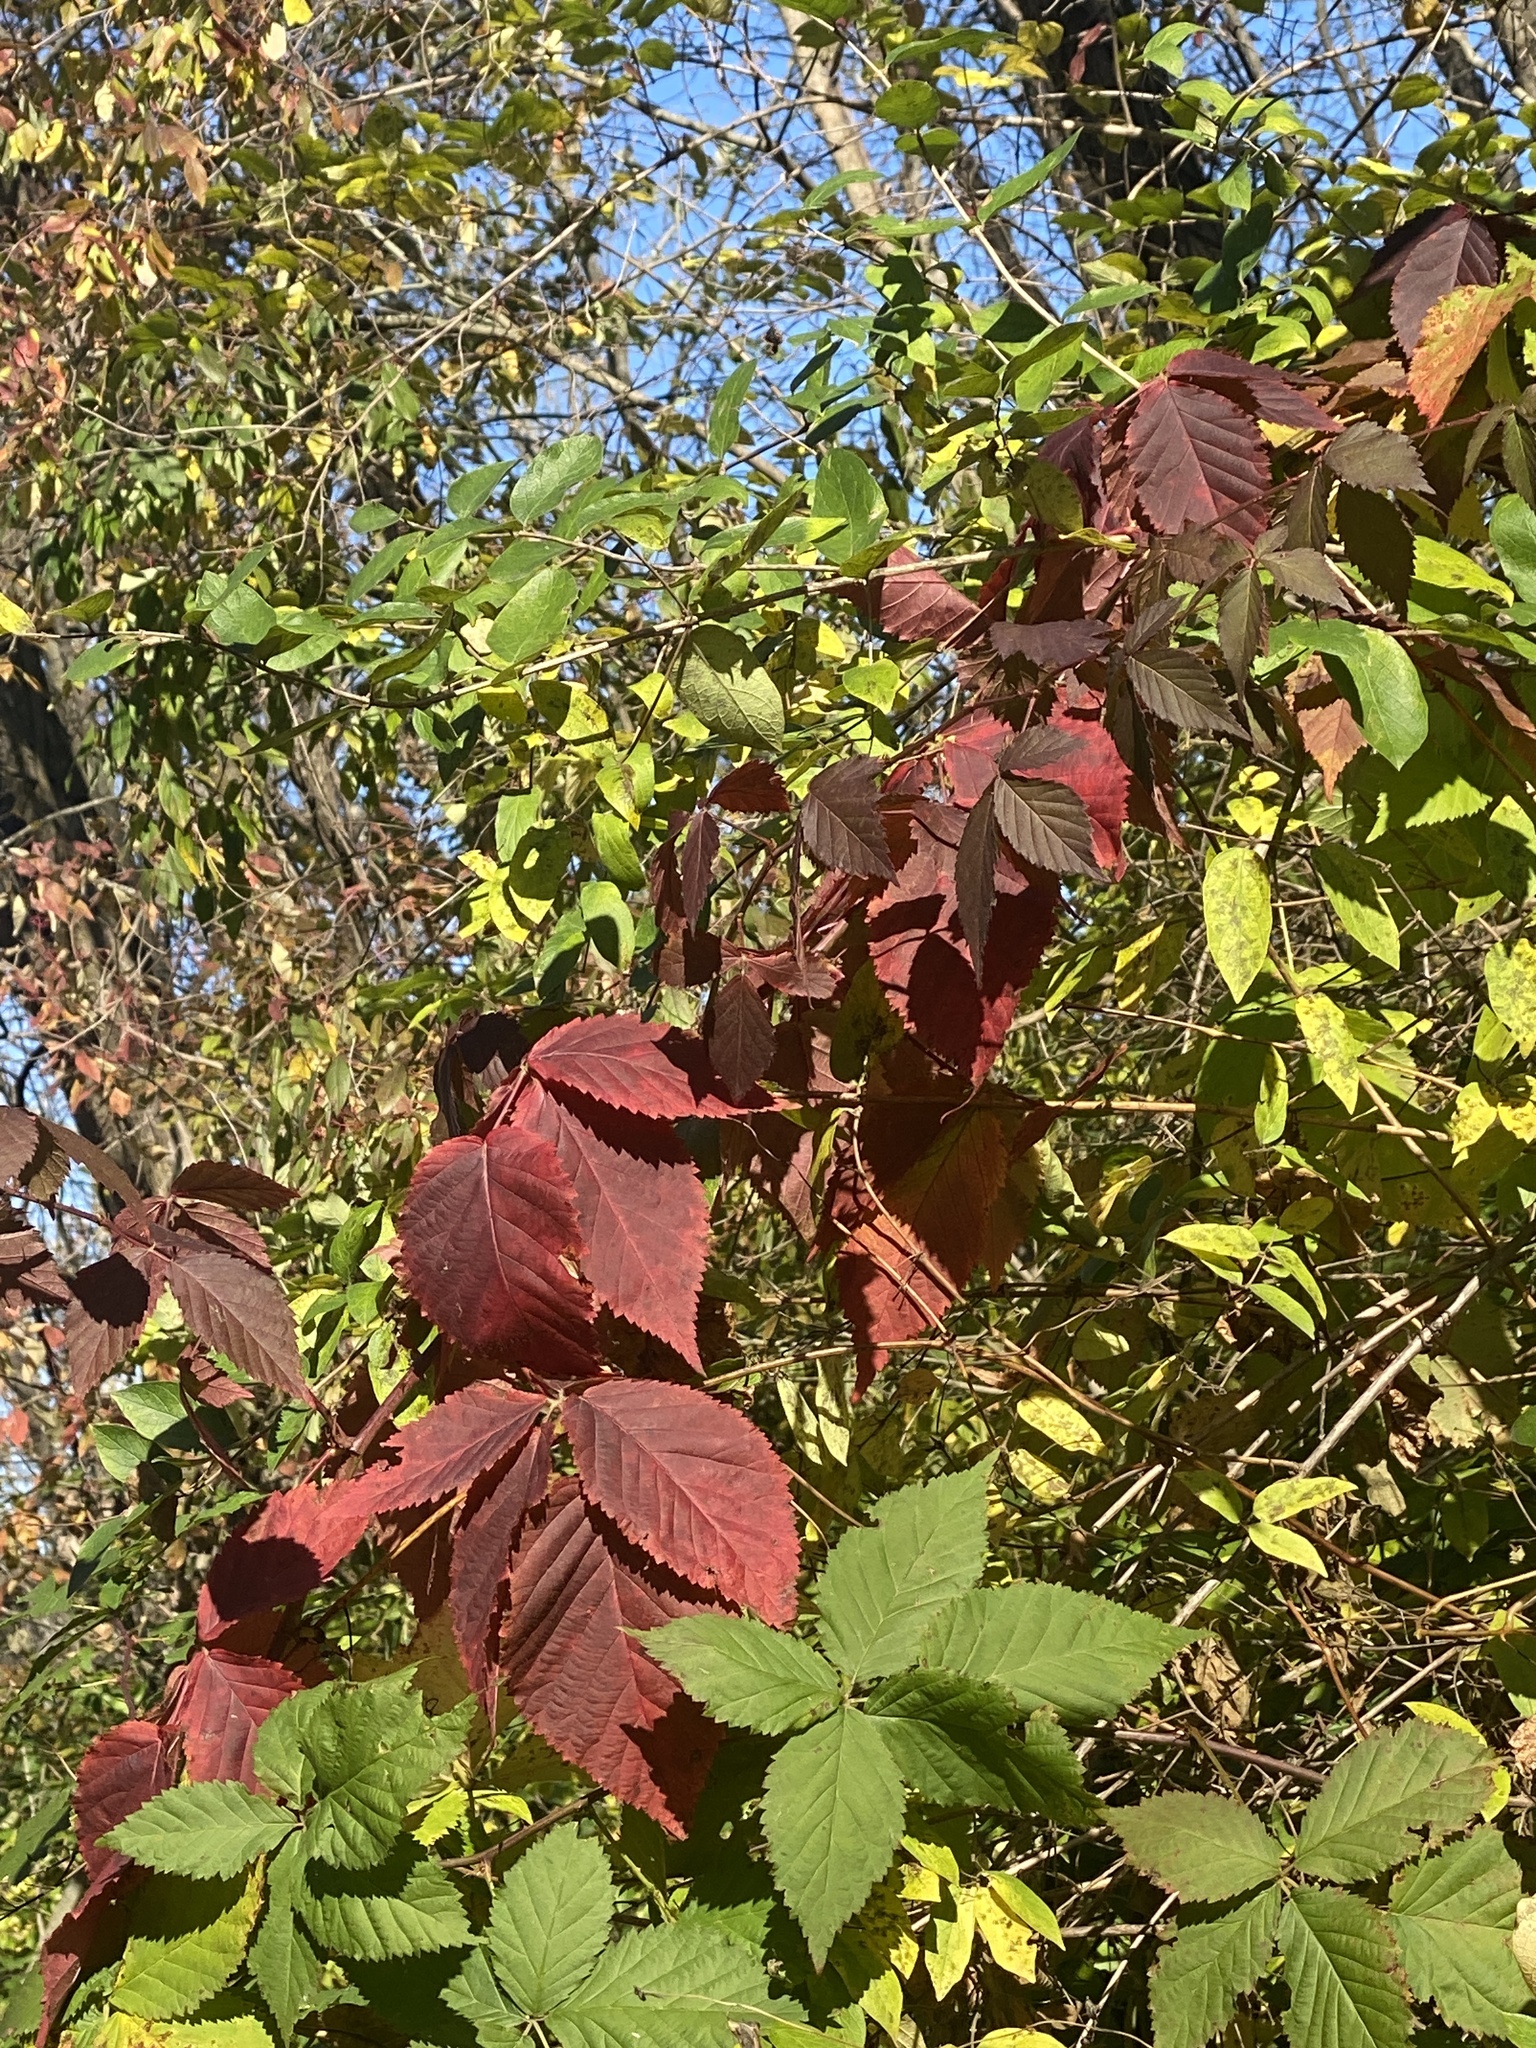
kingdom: Plantae
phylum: Tracheophyta
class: Magnoliopsida
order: Rosales
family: Rosaceae
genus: Rubus
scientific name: Rubus allegheniensis
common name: Allegheny blackberry
